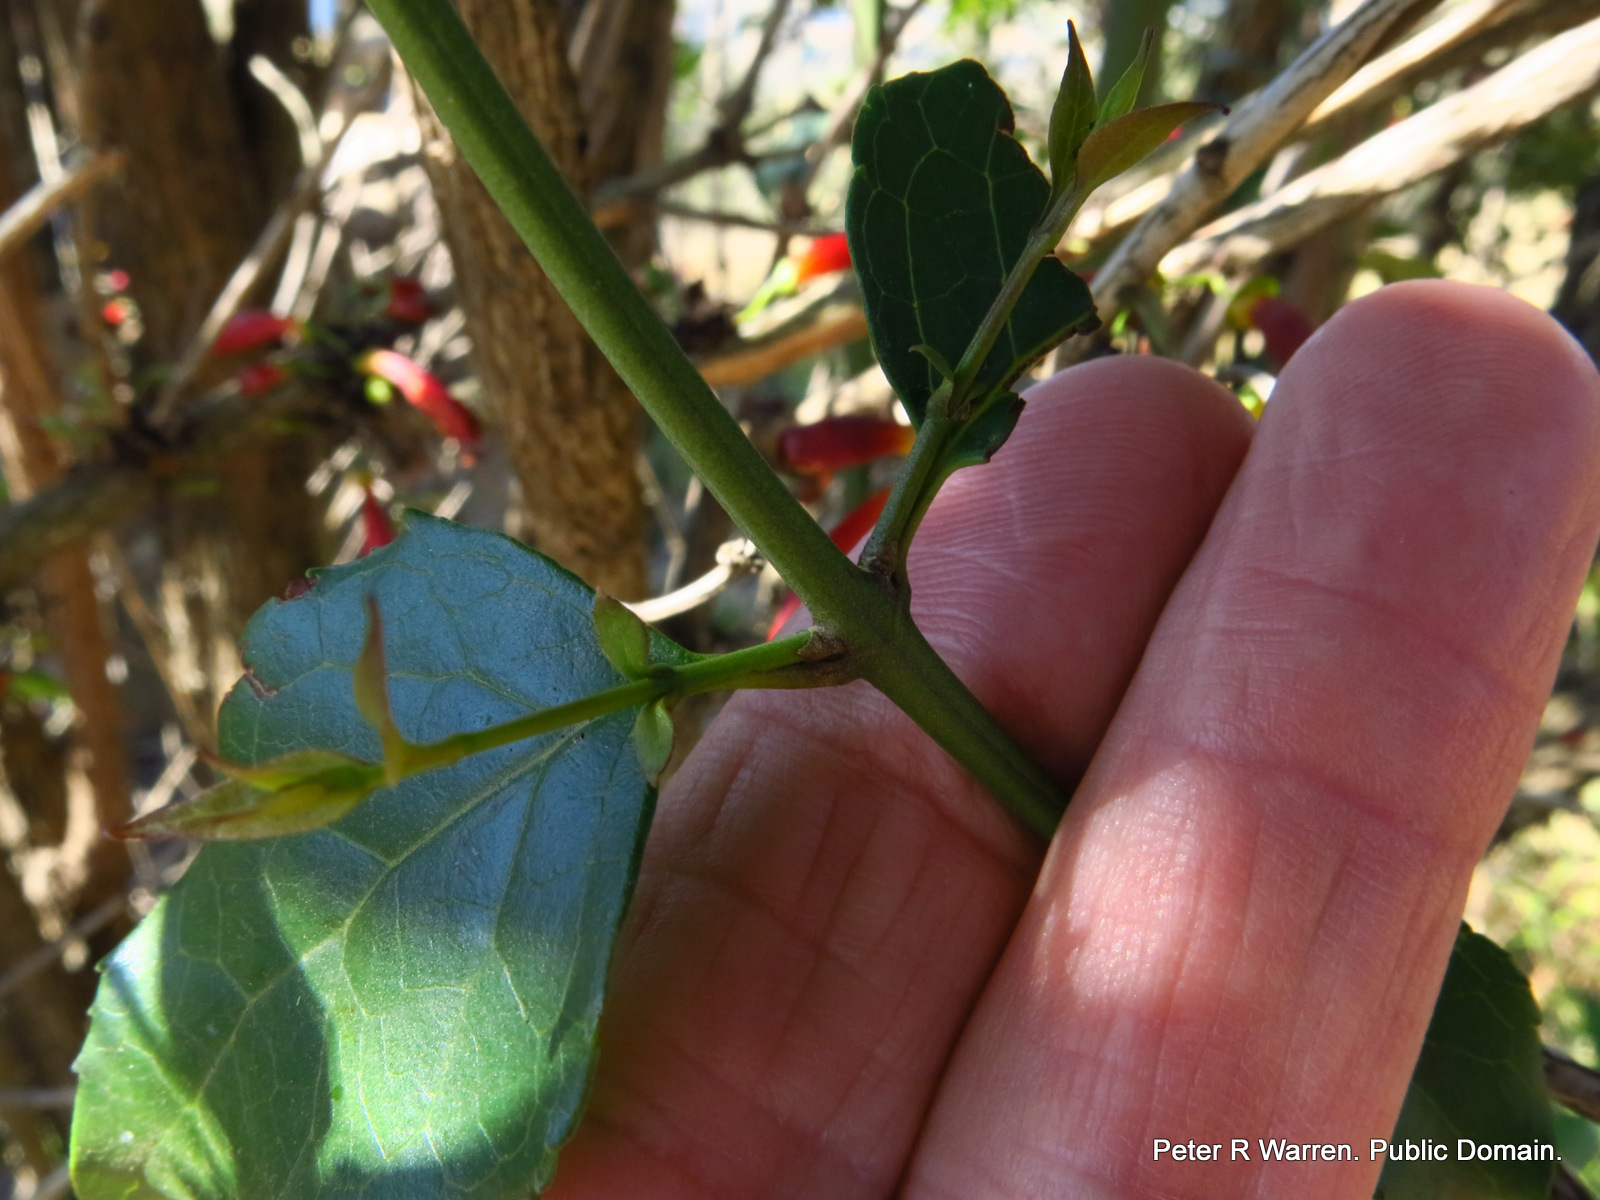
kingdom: Plantae
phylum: Tracheophyta
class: Magnoliopsida
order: Lamiales
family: Stilbaceae
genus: Halleria
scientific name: Halleria lucida
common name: Tree fuschia
